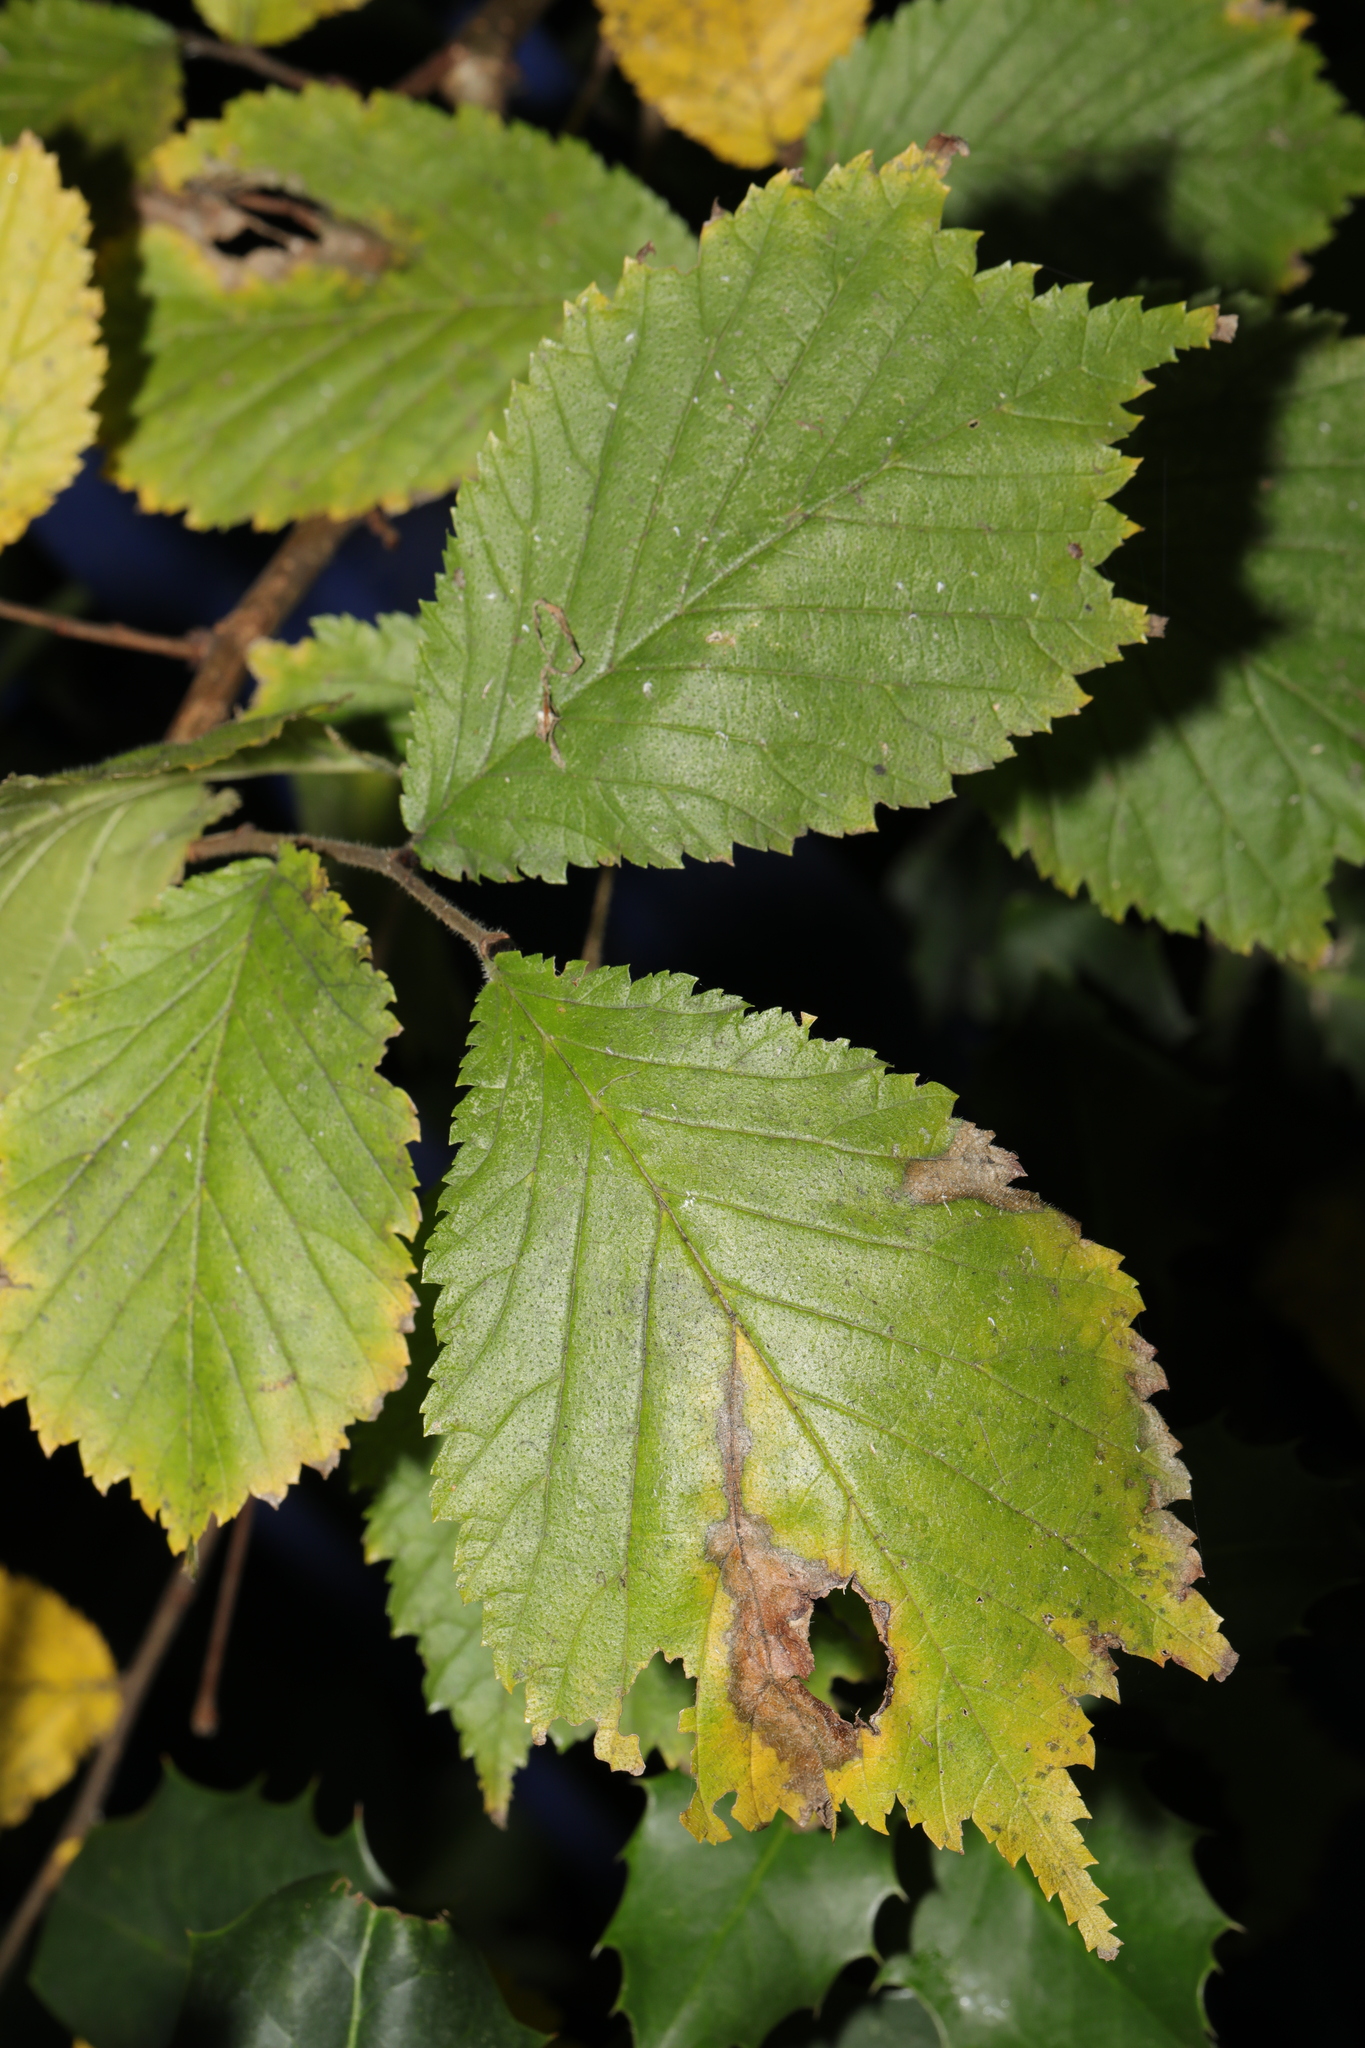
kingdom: Plantae
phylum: Tracheophyta
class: Magnoliopsida
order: Rosales
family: Ulmaceae
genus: Ulmus
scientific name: Ulmus glabra
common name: Wych elm
